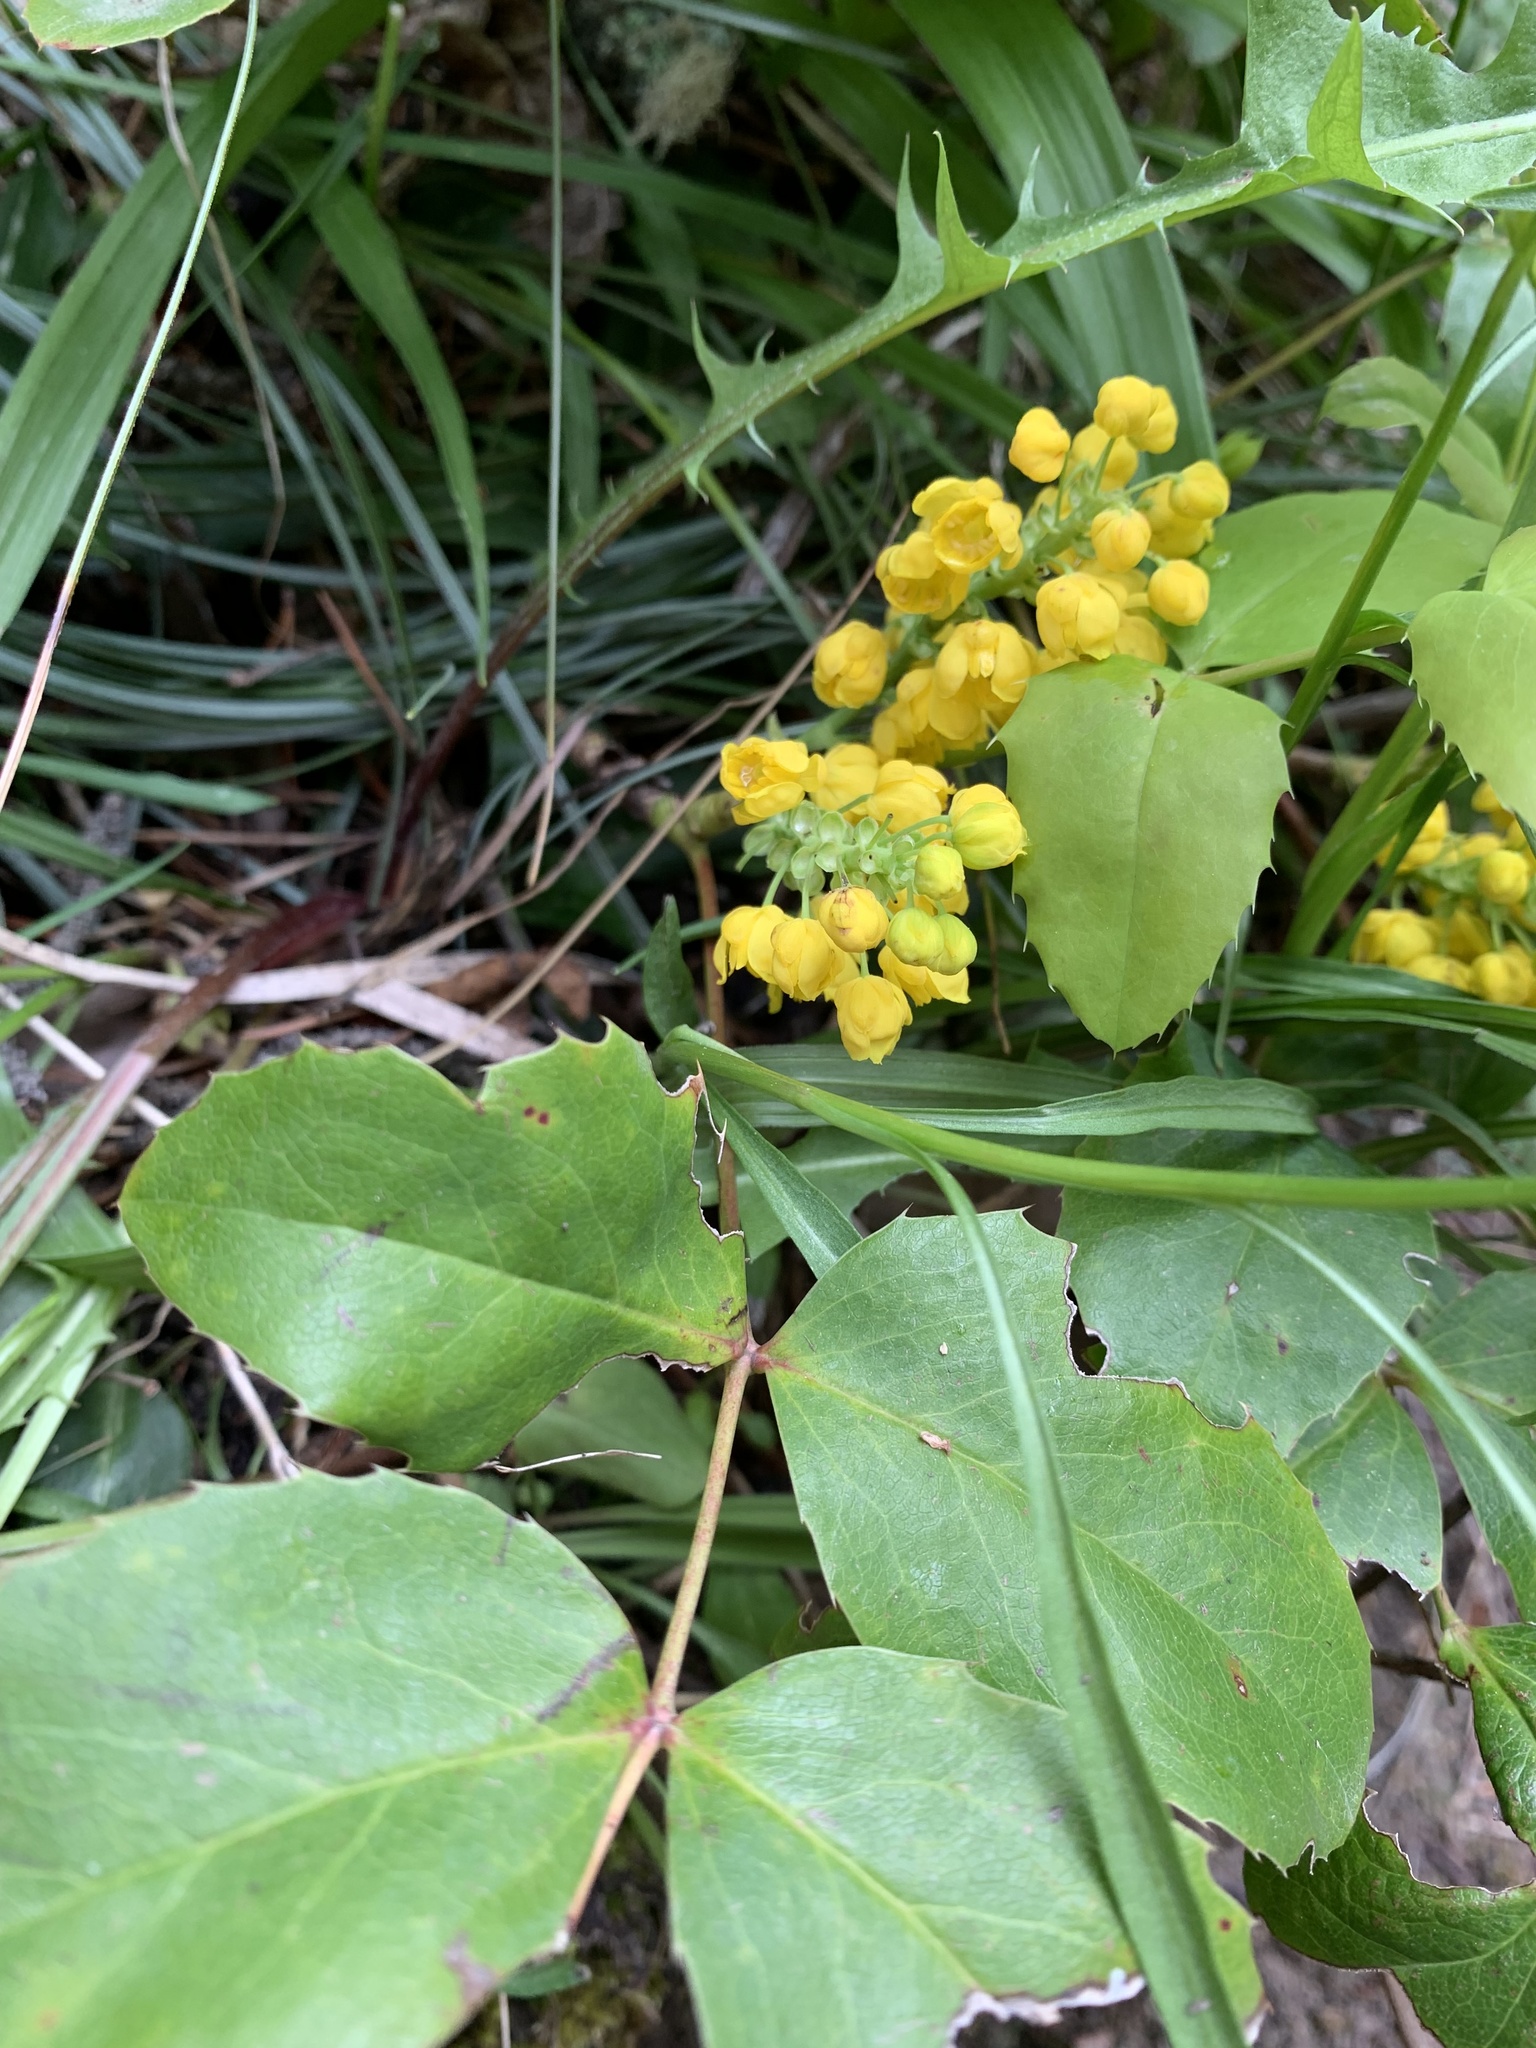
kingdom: Plantae
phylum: Tracheophyta
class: Magnoliopsida
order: Ranunculales
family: Berberidaceae
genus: Mahonia
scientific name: Mahonia repens
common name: Creeping oregon-grape
